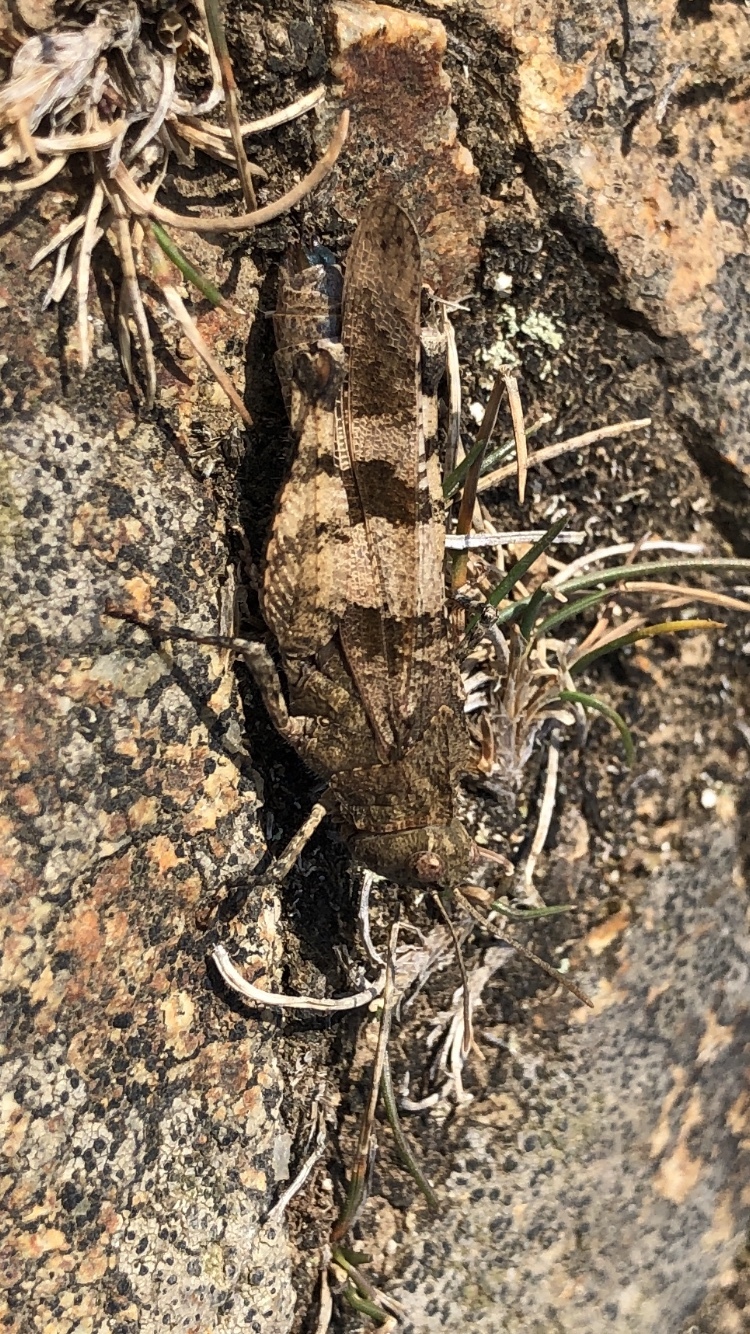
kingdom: Animalia
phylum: Arthropoda
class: Insecta
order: Orthoptera
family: Acrididae
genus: Oedipoda
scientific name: Oedipoda caerulescens
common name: Blue-winged grasshopper
